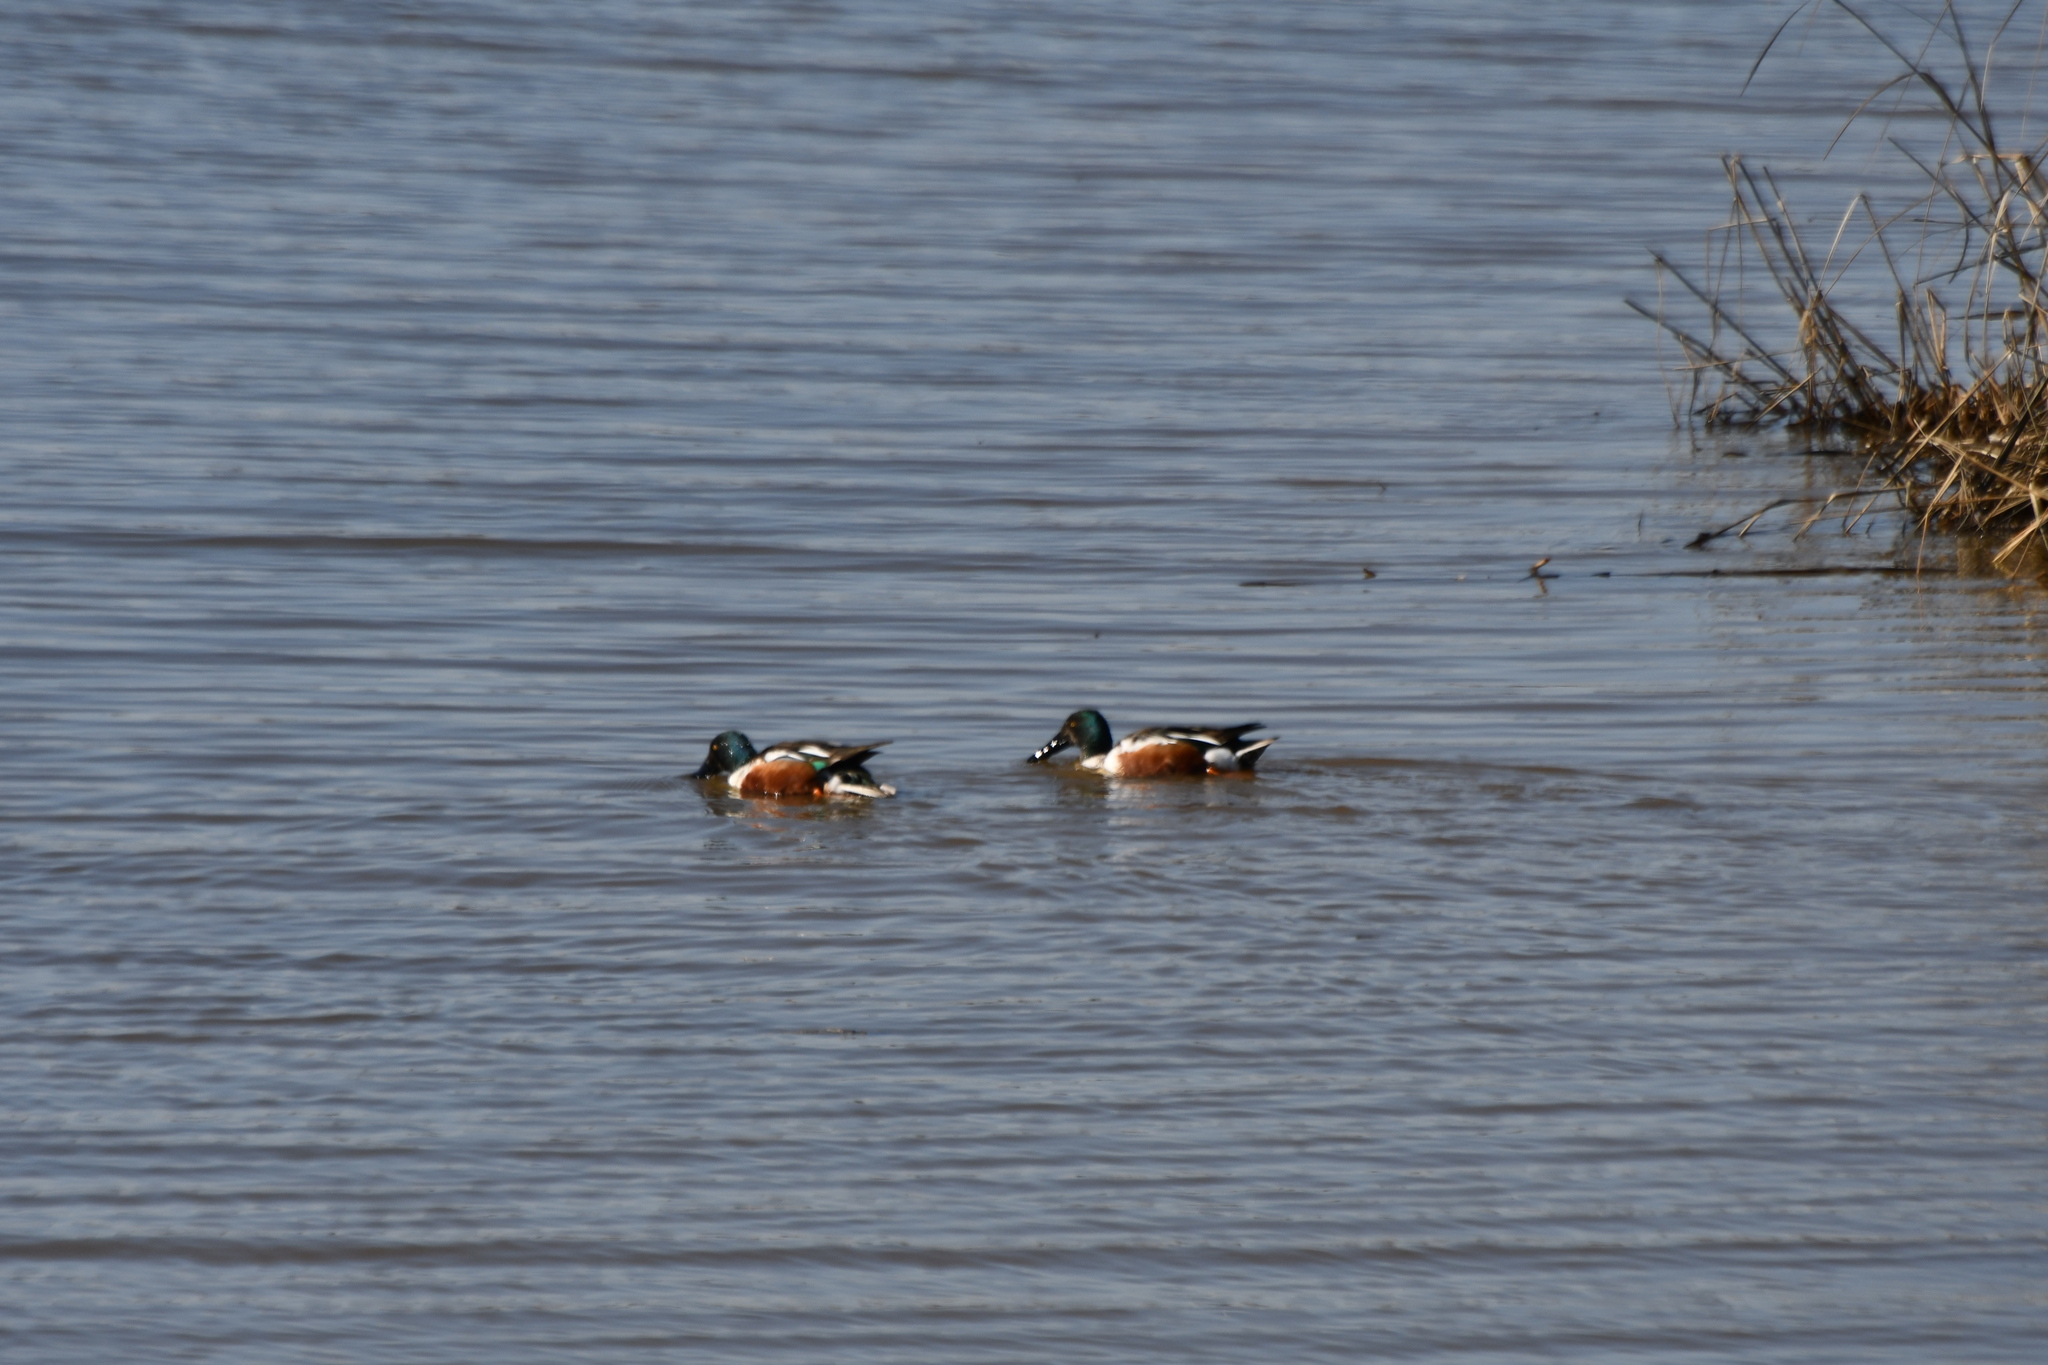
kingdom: Animalia
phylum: Chordata
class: Aves
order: Anseriformes
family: Anatidae
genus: Spatula
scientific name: Spatula clypeata
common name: Northern shoveler
